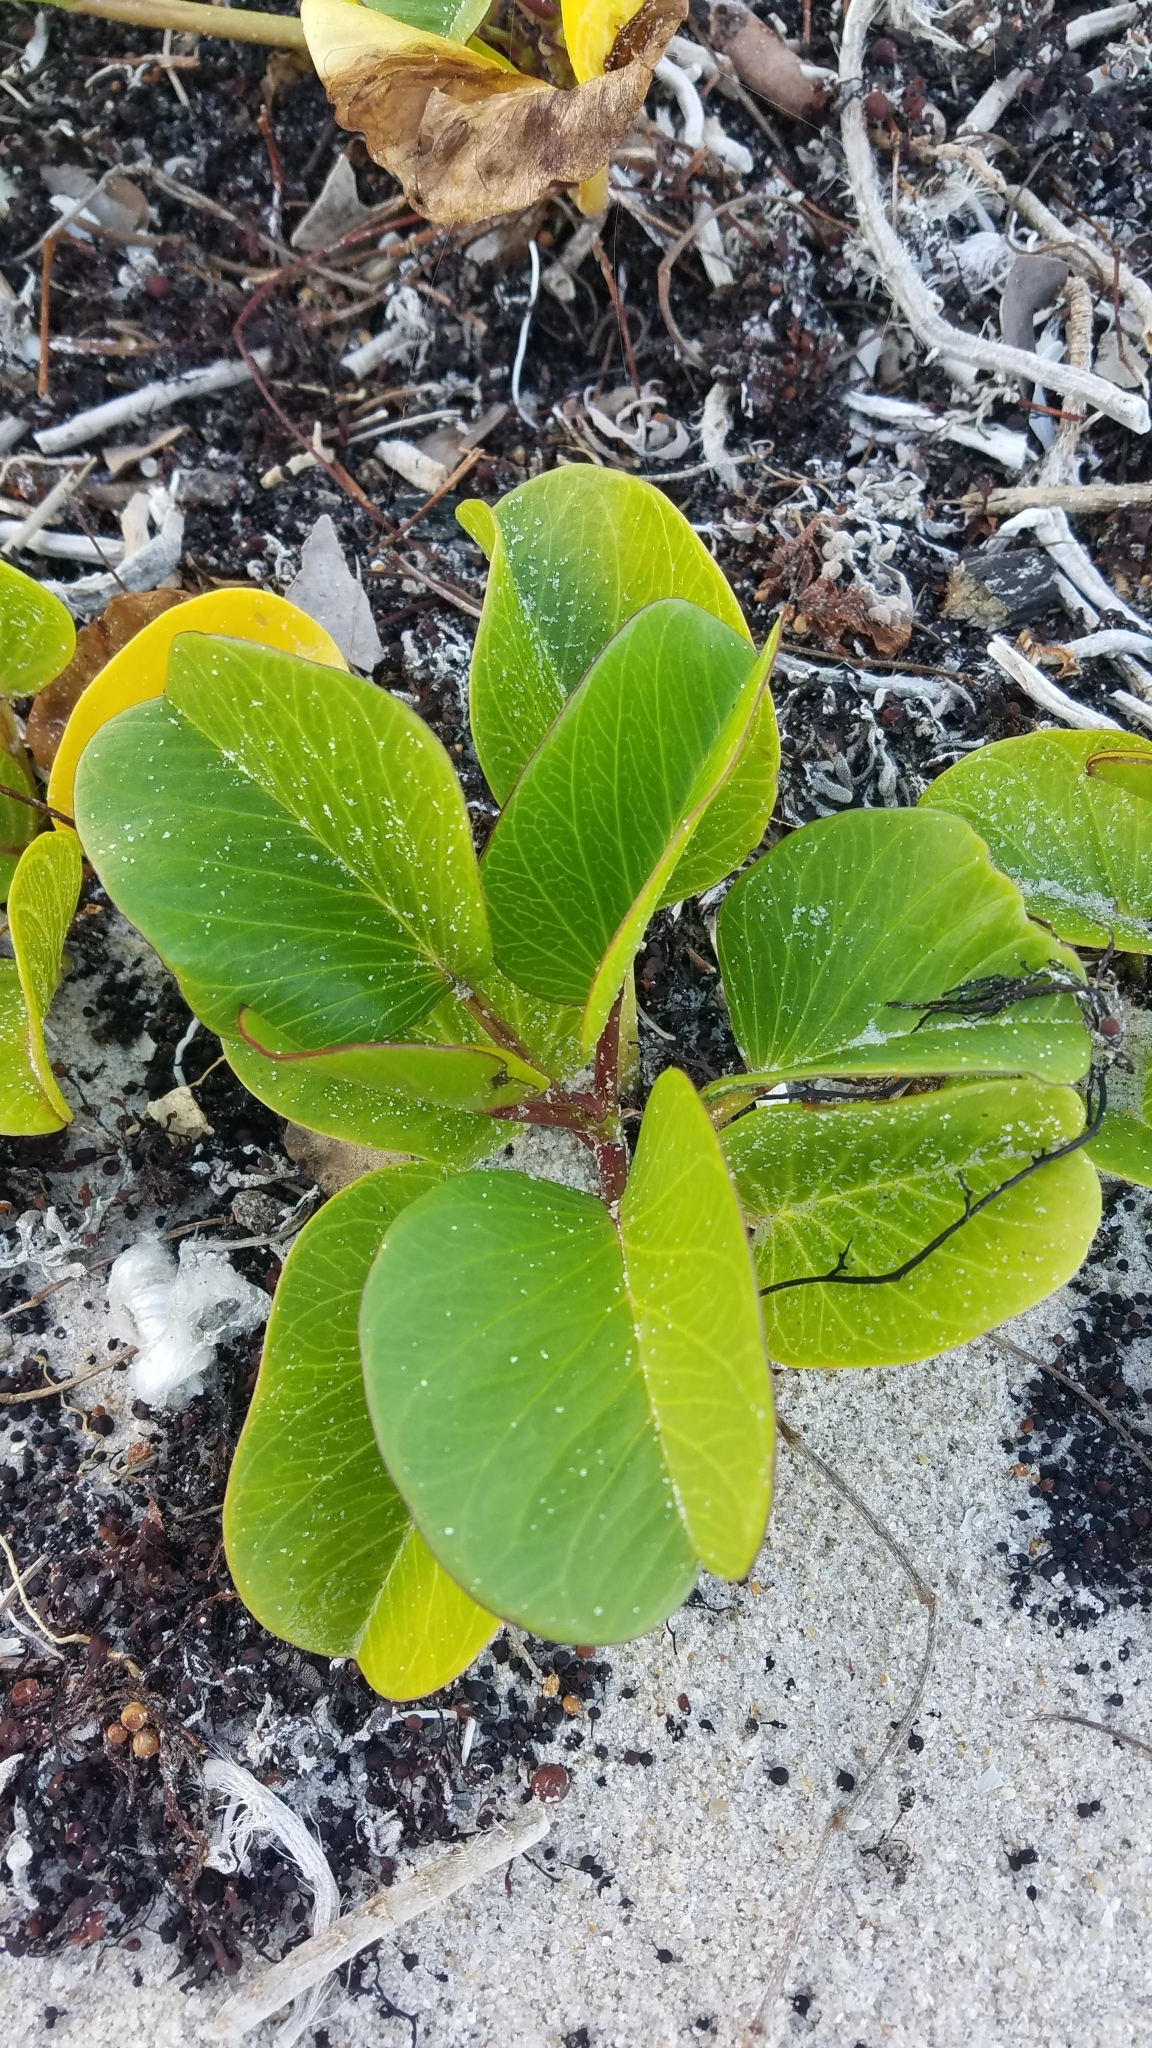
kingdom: Plantae
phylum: Tracheophyta
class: Magnoliopsida
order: Solanales
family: Convolvulaceae
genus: Ipomoea
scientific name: Ipomoea pes-caprae
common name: Beach morning glory
